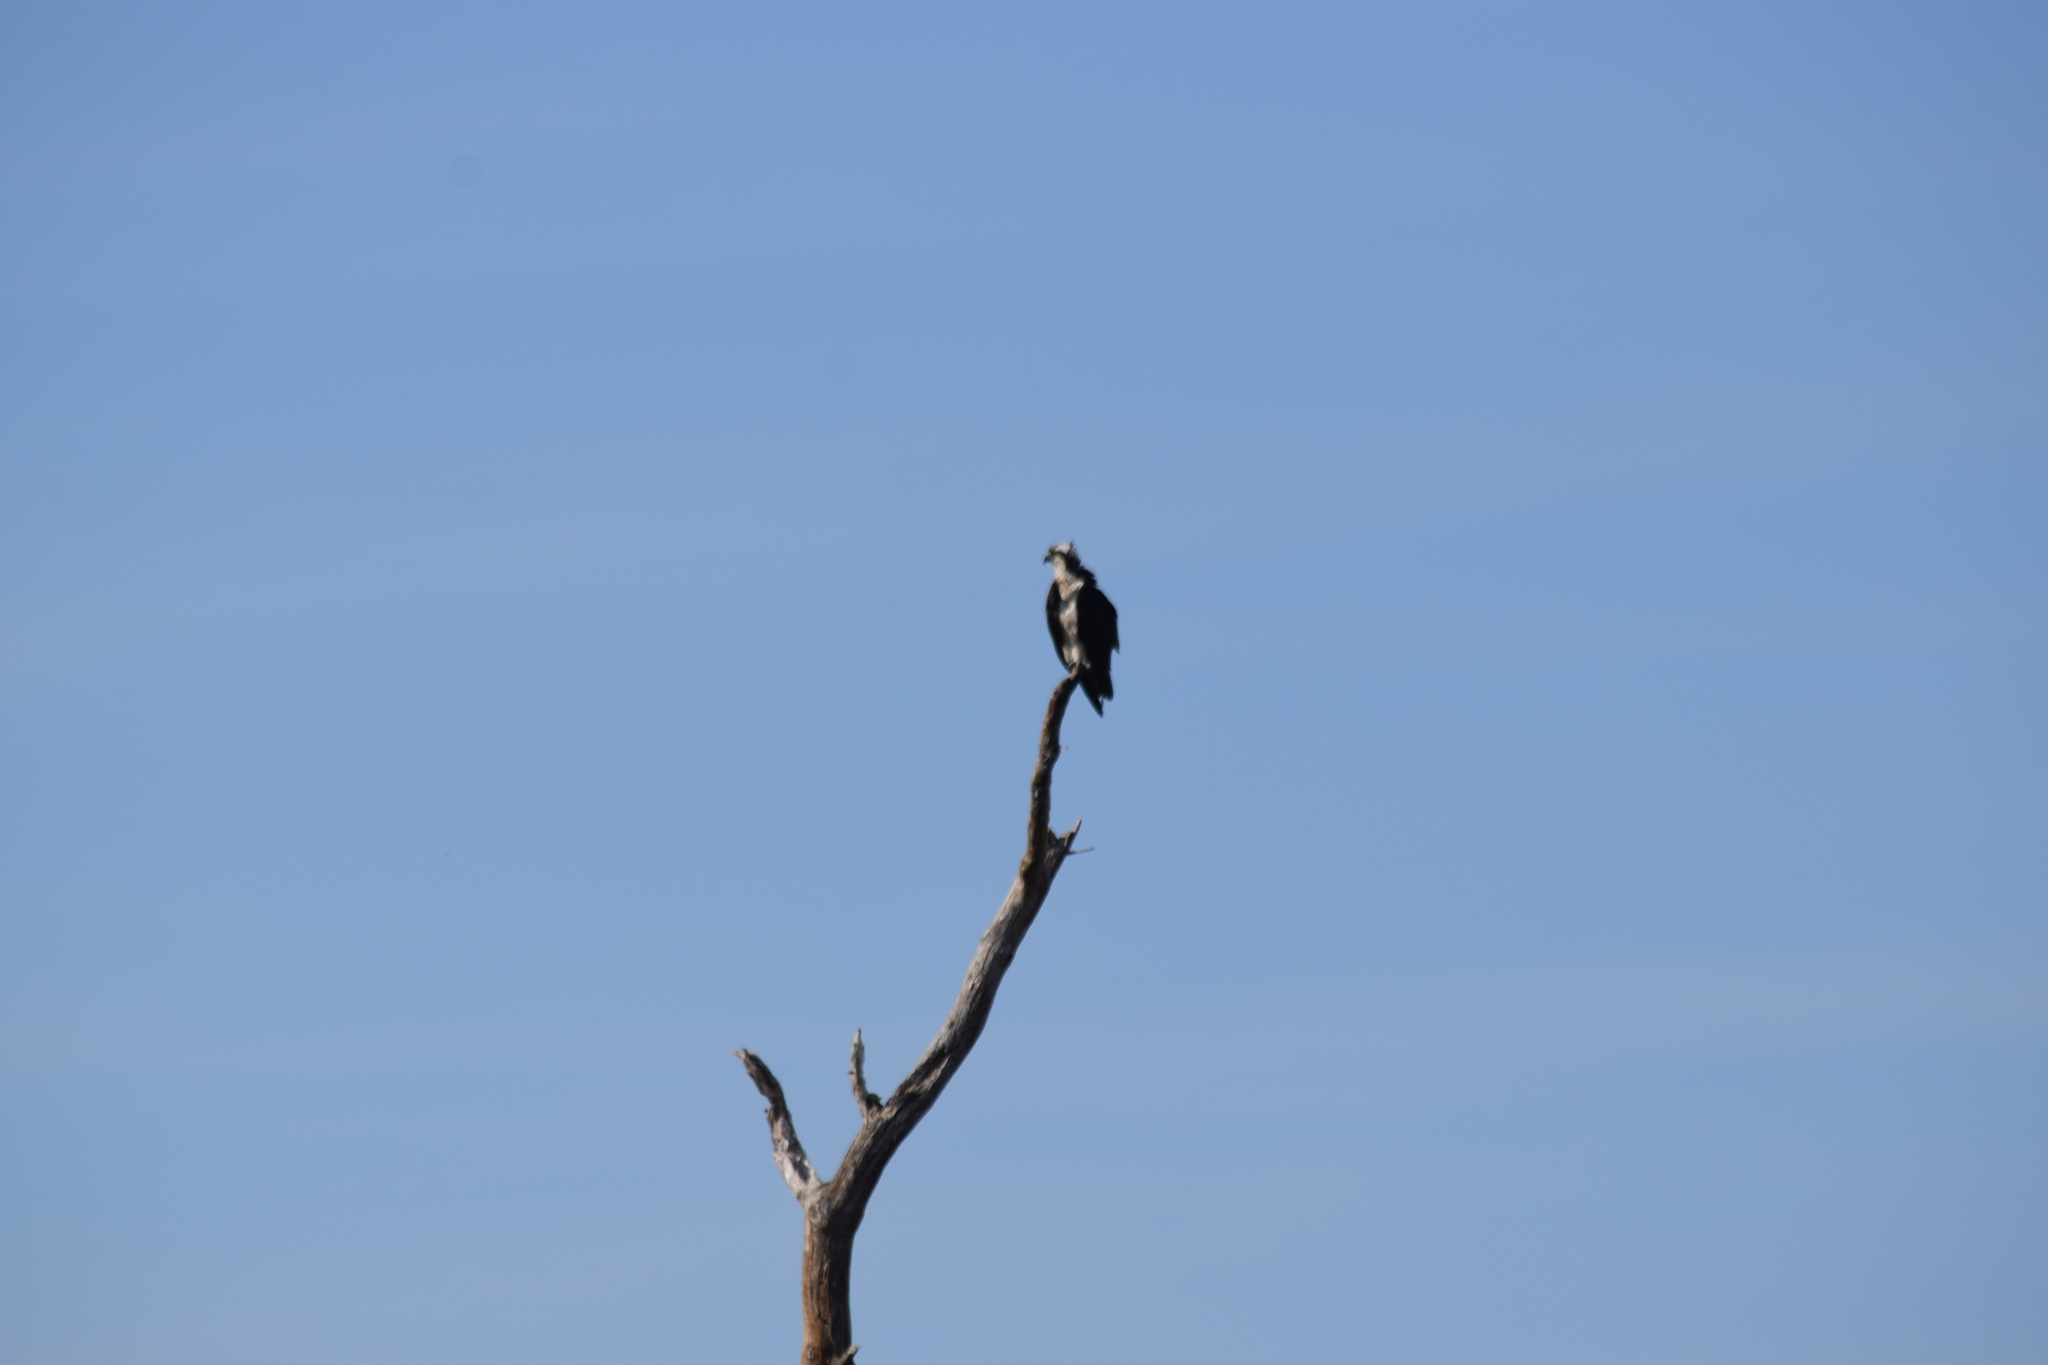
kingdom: Animalia
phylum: Chordata
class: Aves
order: Accipitriformes
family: Pandionidae
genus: Pandion
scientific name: Pandion haliaetus
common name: Osprey
